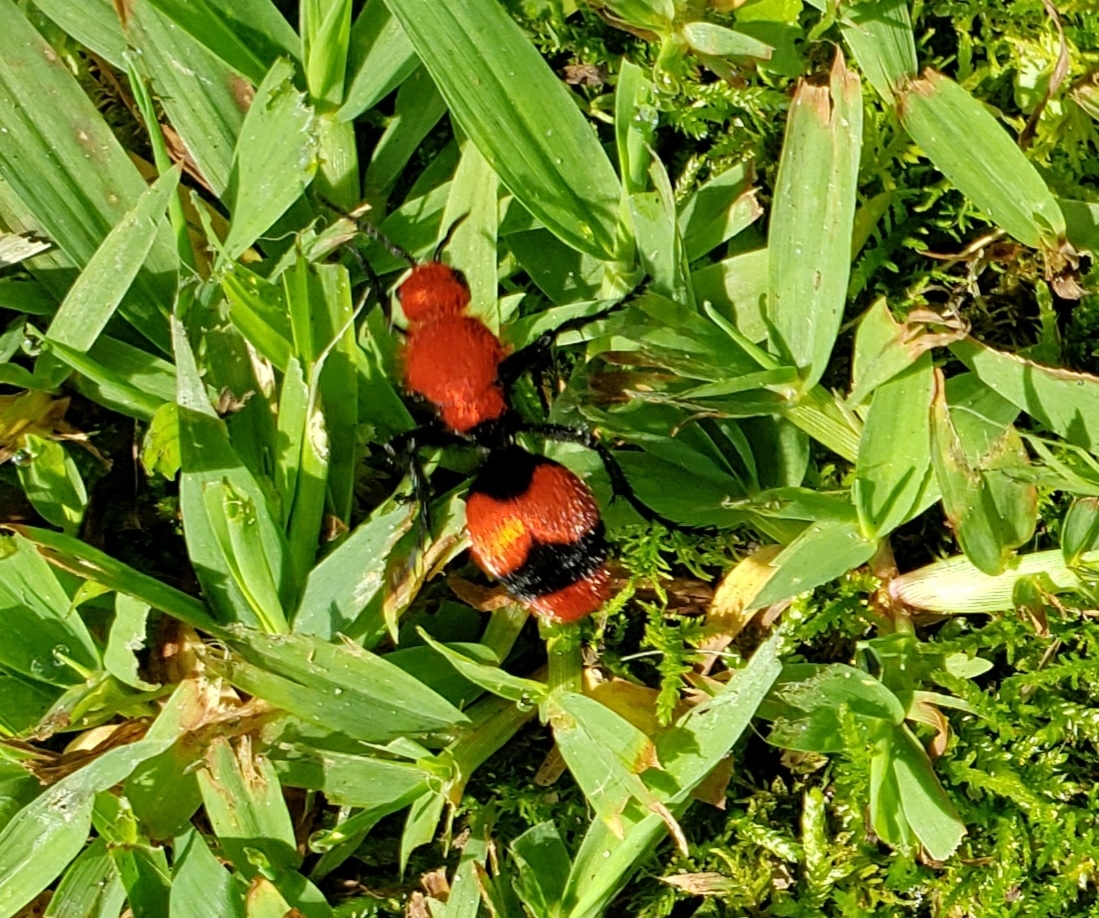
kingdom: Animalia
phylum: Arthropoda
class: Insecta
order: Hymenoptera
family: Mutillidae
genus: Dasymutilla
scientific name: Dasymutilla occidentalis
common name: Common eastern velvet ant
